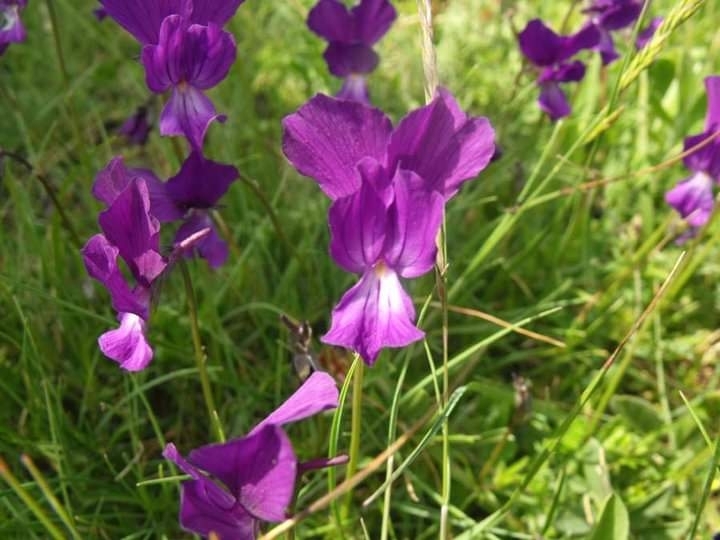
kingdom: Plantae
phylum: Tracheophyta
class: Magnoliopsida
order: Malpighiales
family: Violaceae
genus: Viola
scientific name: Viola merxmuelleri
